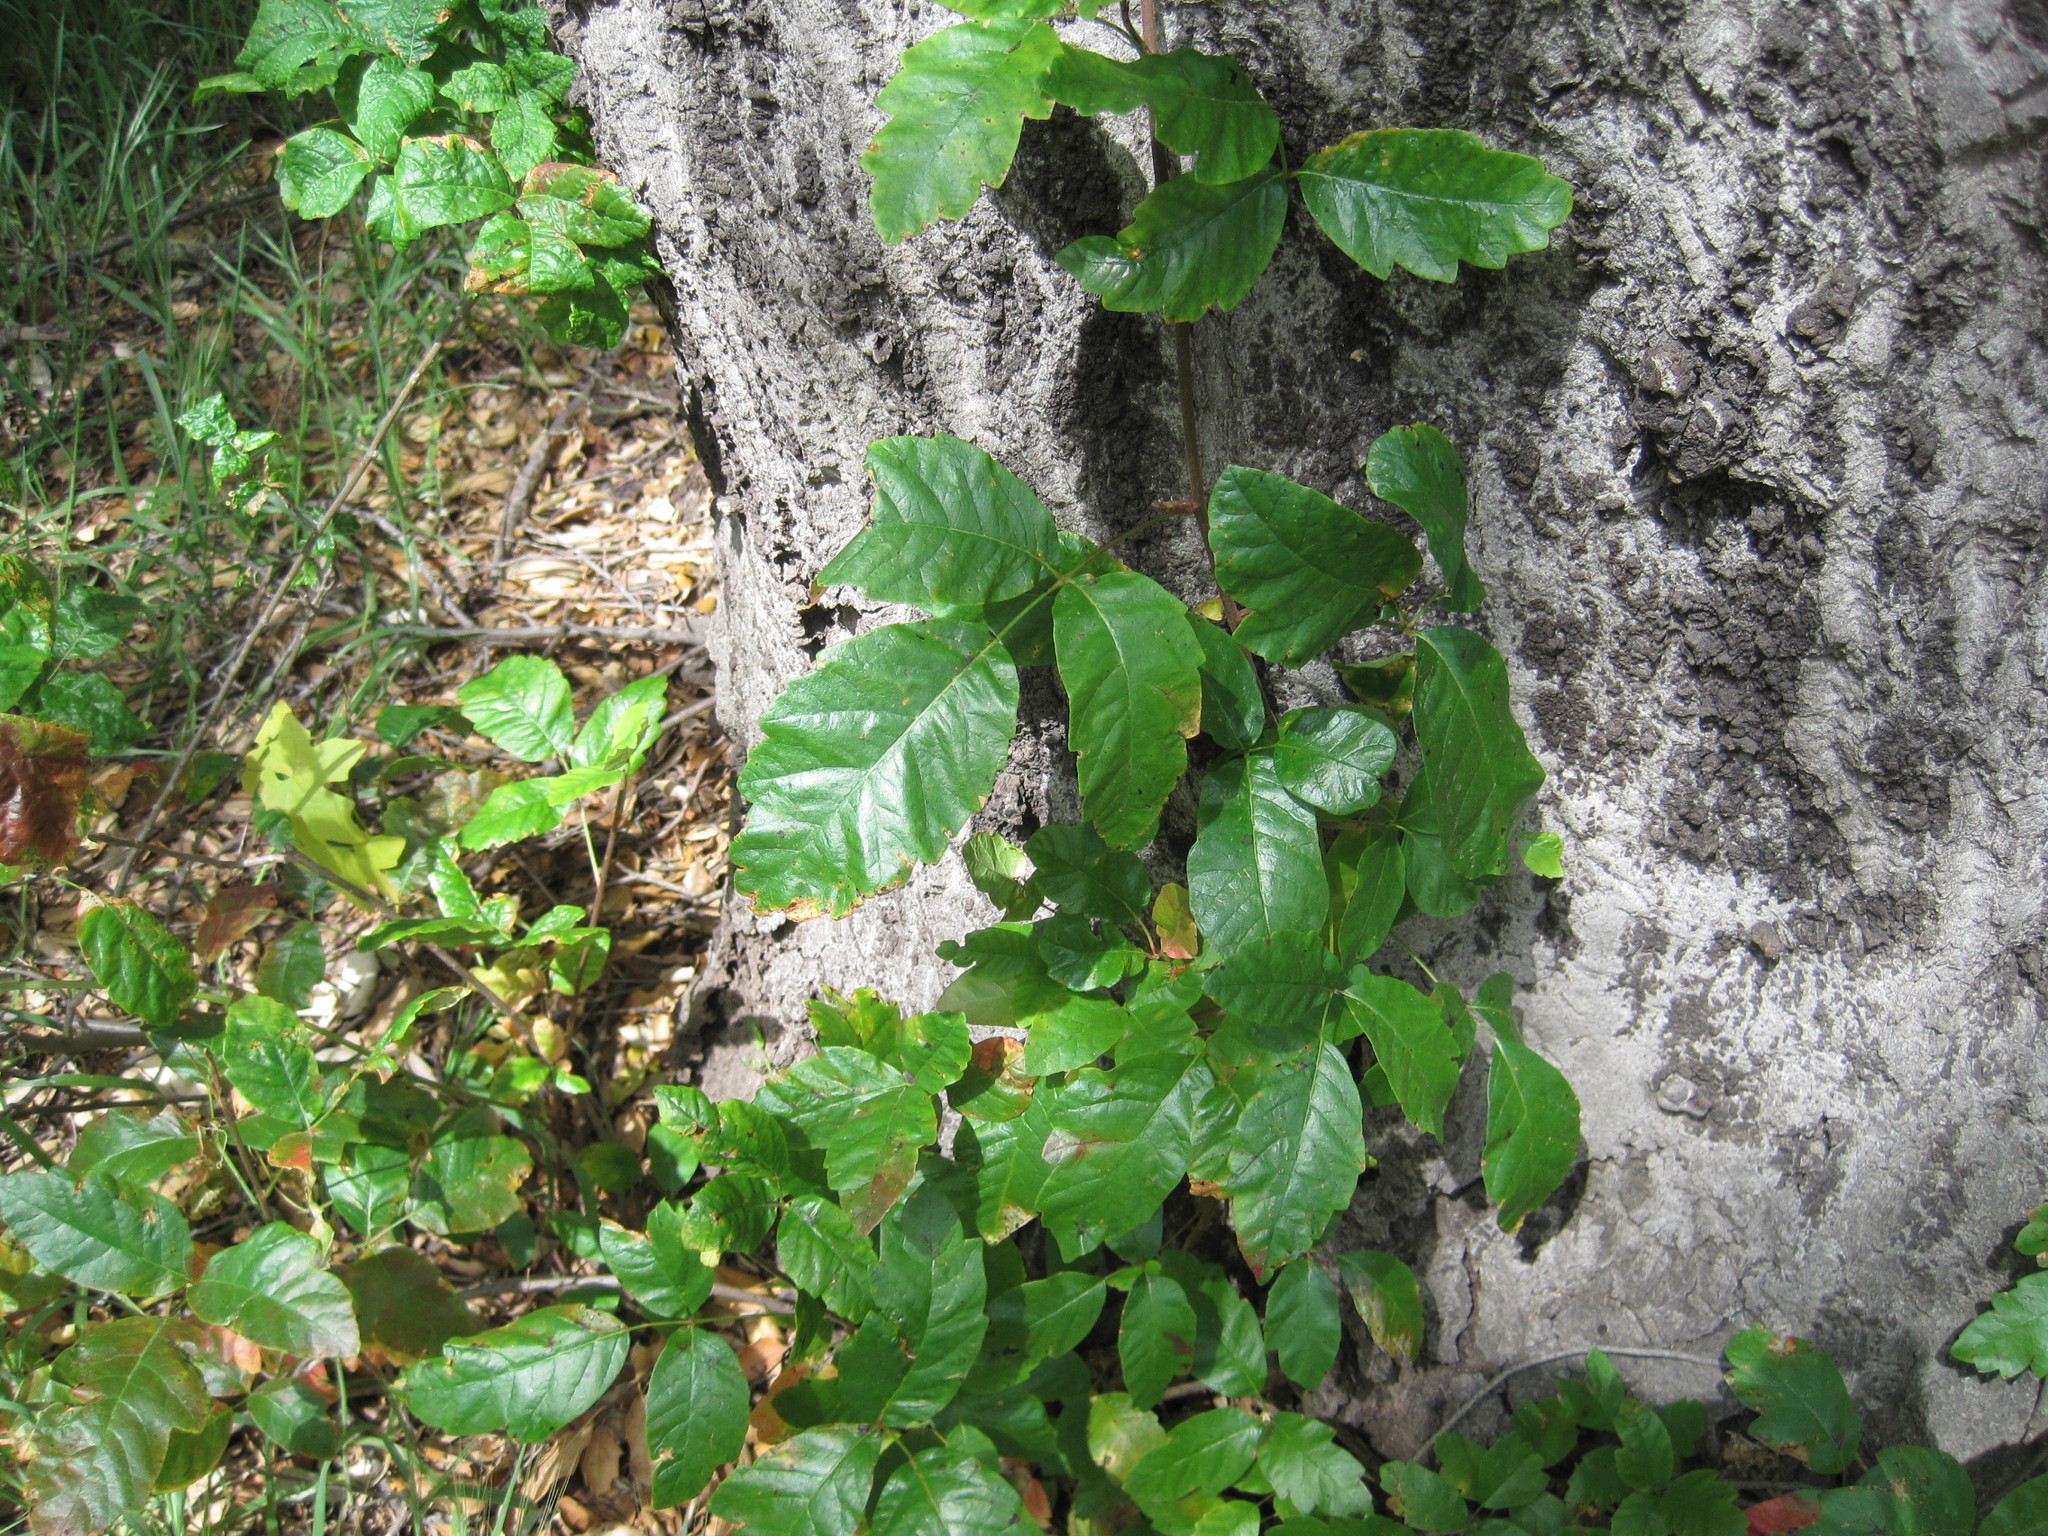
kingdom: Plantae
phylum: Tracheophyta
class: Magnoliopsida
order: Sapindales
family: Anacardiaceae
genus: Toxicodendron
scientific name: Toxicodendron diversilobum
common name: Pacific poison-oak
